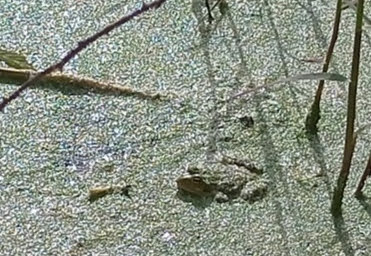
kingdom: Animalia
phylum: Chordata
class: Amphibia
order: Anura
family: Ranidae
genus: Pelophylax
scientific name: Pelophylax perezi
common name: Perez's frog
